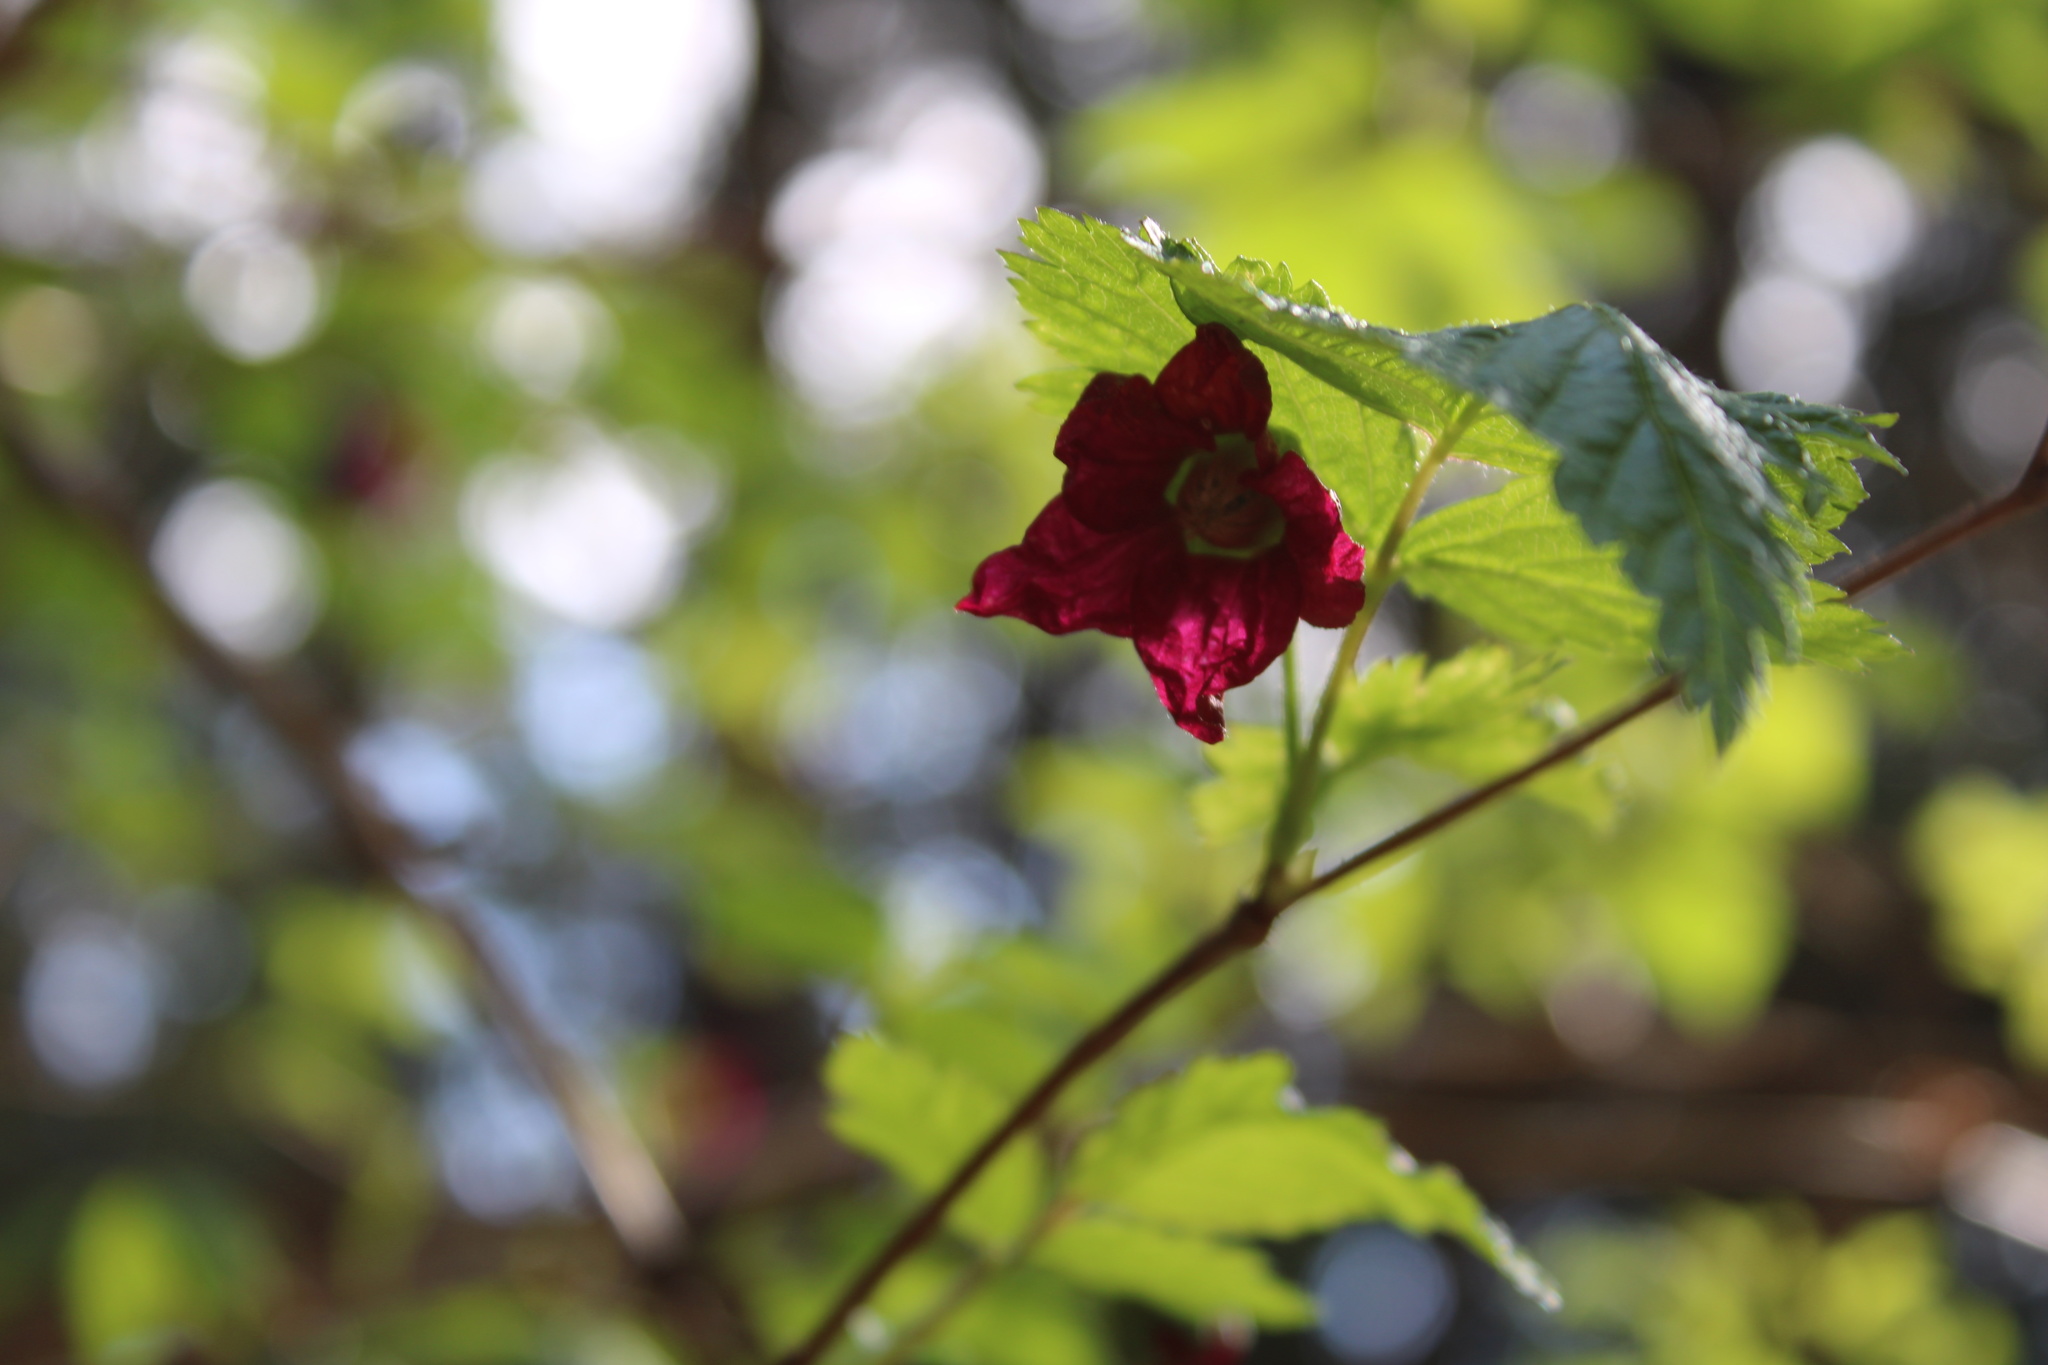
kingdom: Plantae
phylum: Tracheophyta
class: Magnoliopsida
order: Rosales
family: Rosaceae
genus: Rubus
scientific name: Rubus spectabilis
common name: Salmonberry
